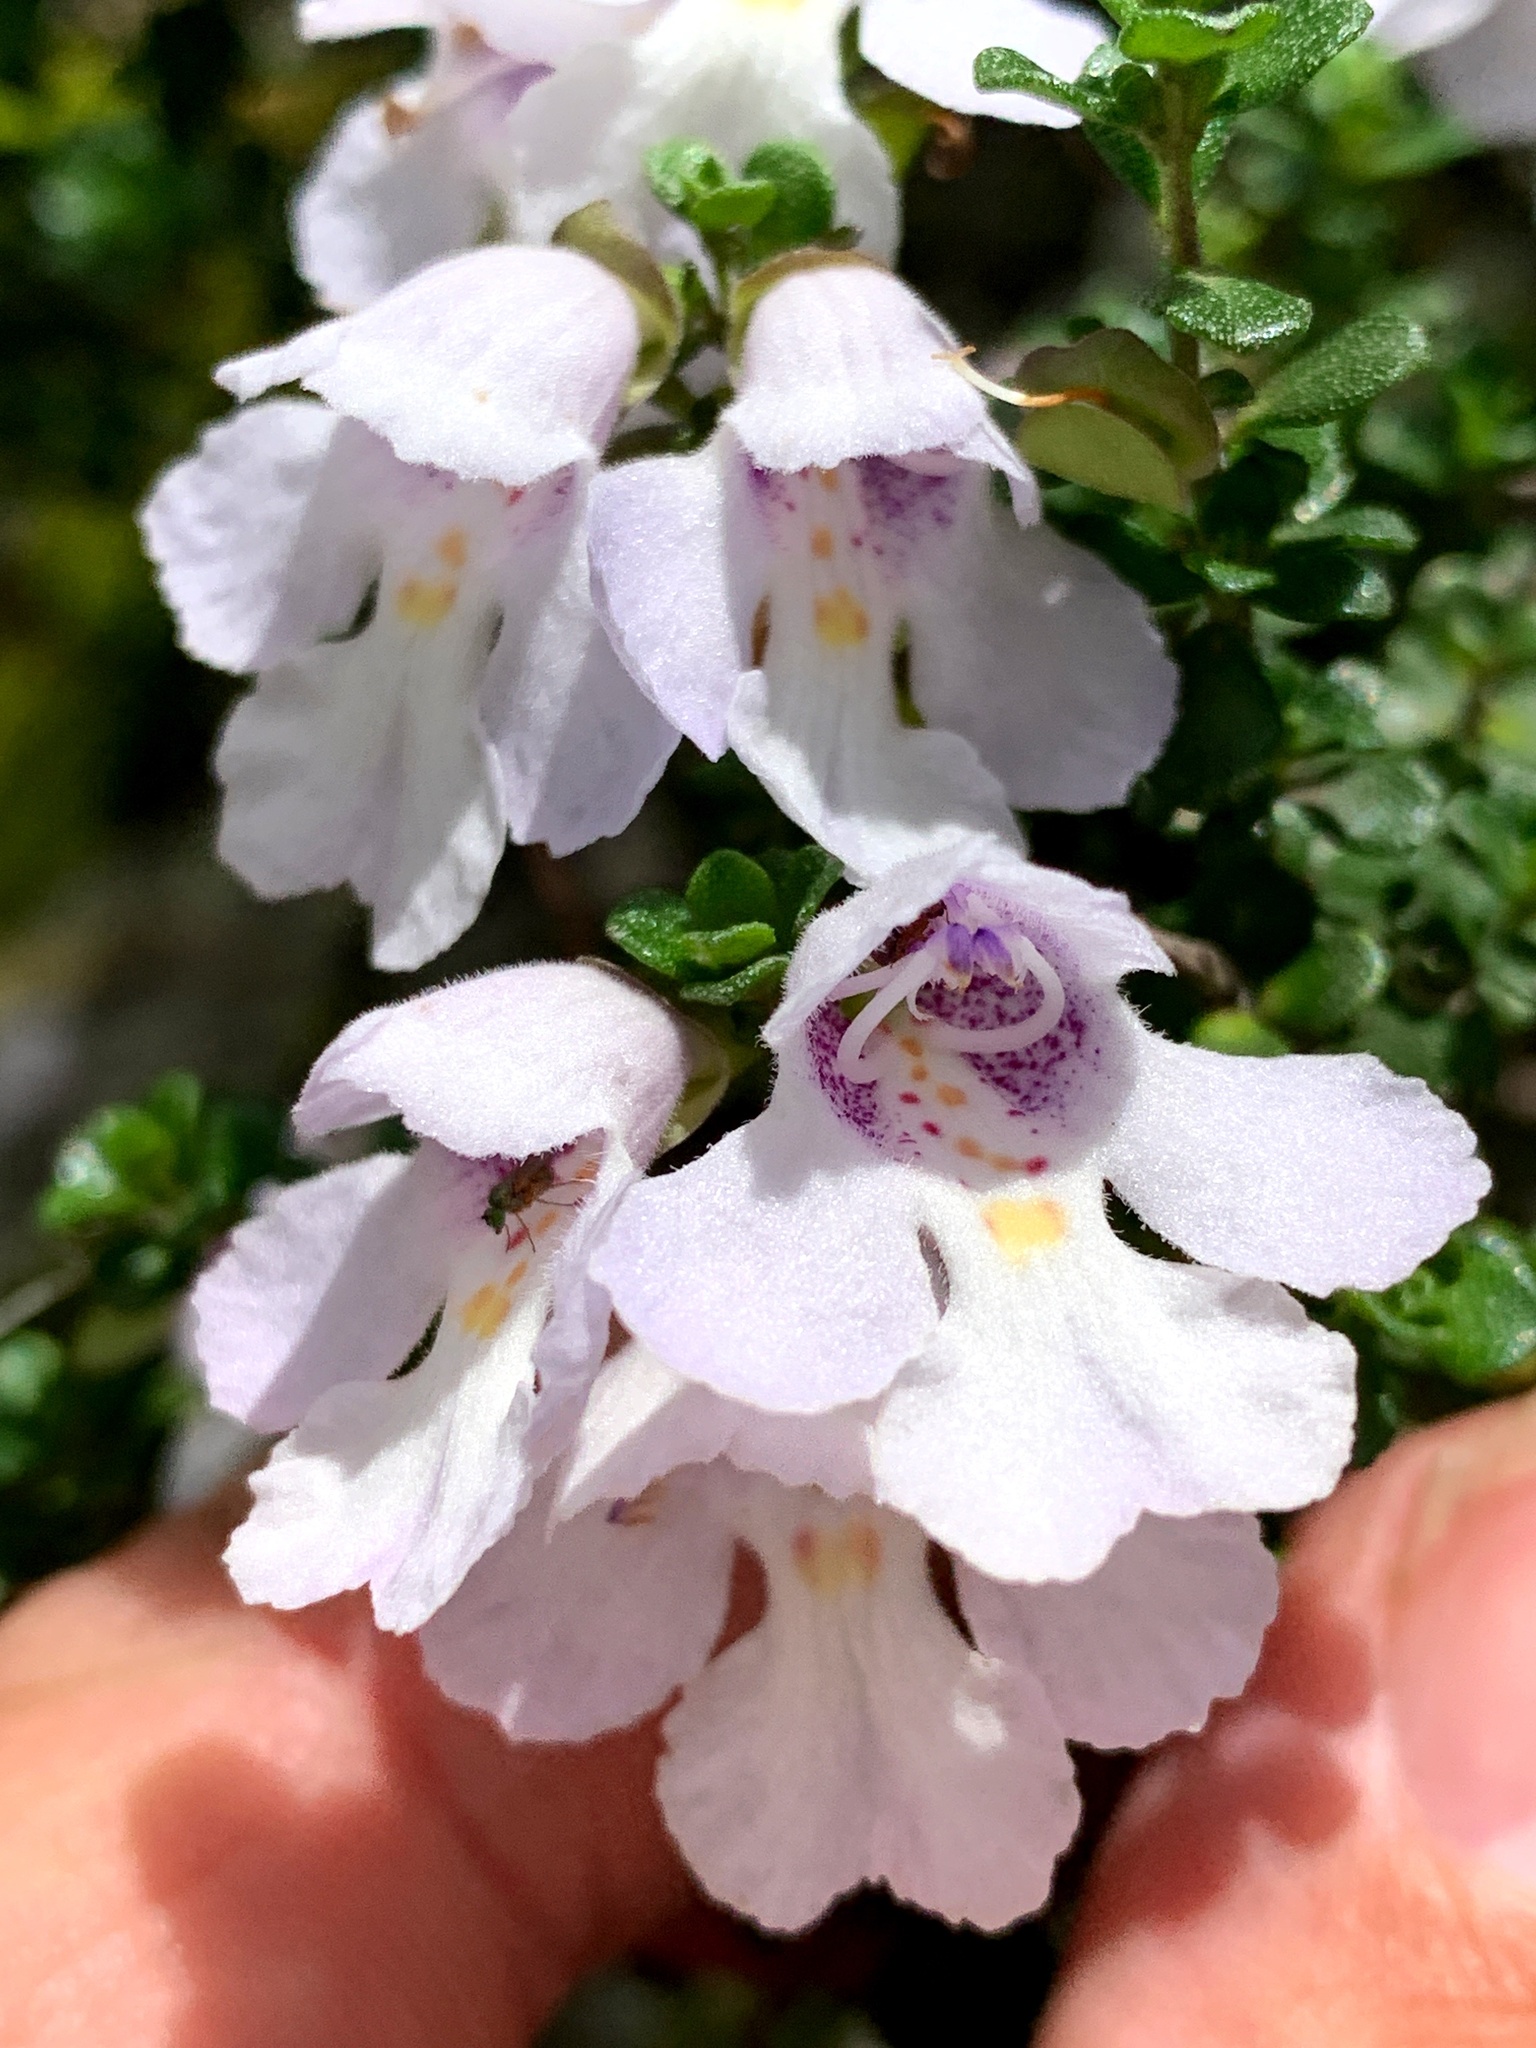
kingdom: Plantae
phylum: Tracheophyta
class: Magnoliopsida
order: Lamiales
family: Lamiaceae
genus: Prostanthera
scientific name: Prostanthera cuneata
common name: Alpine mintbush
